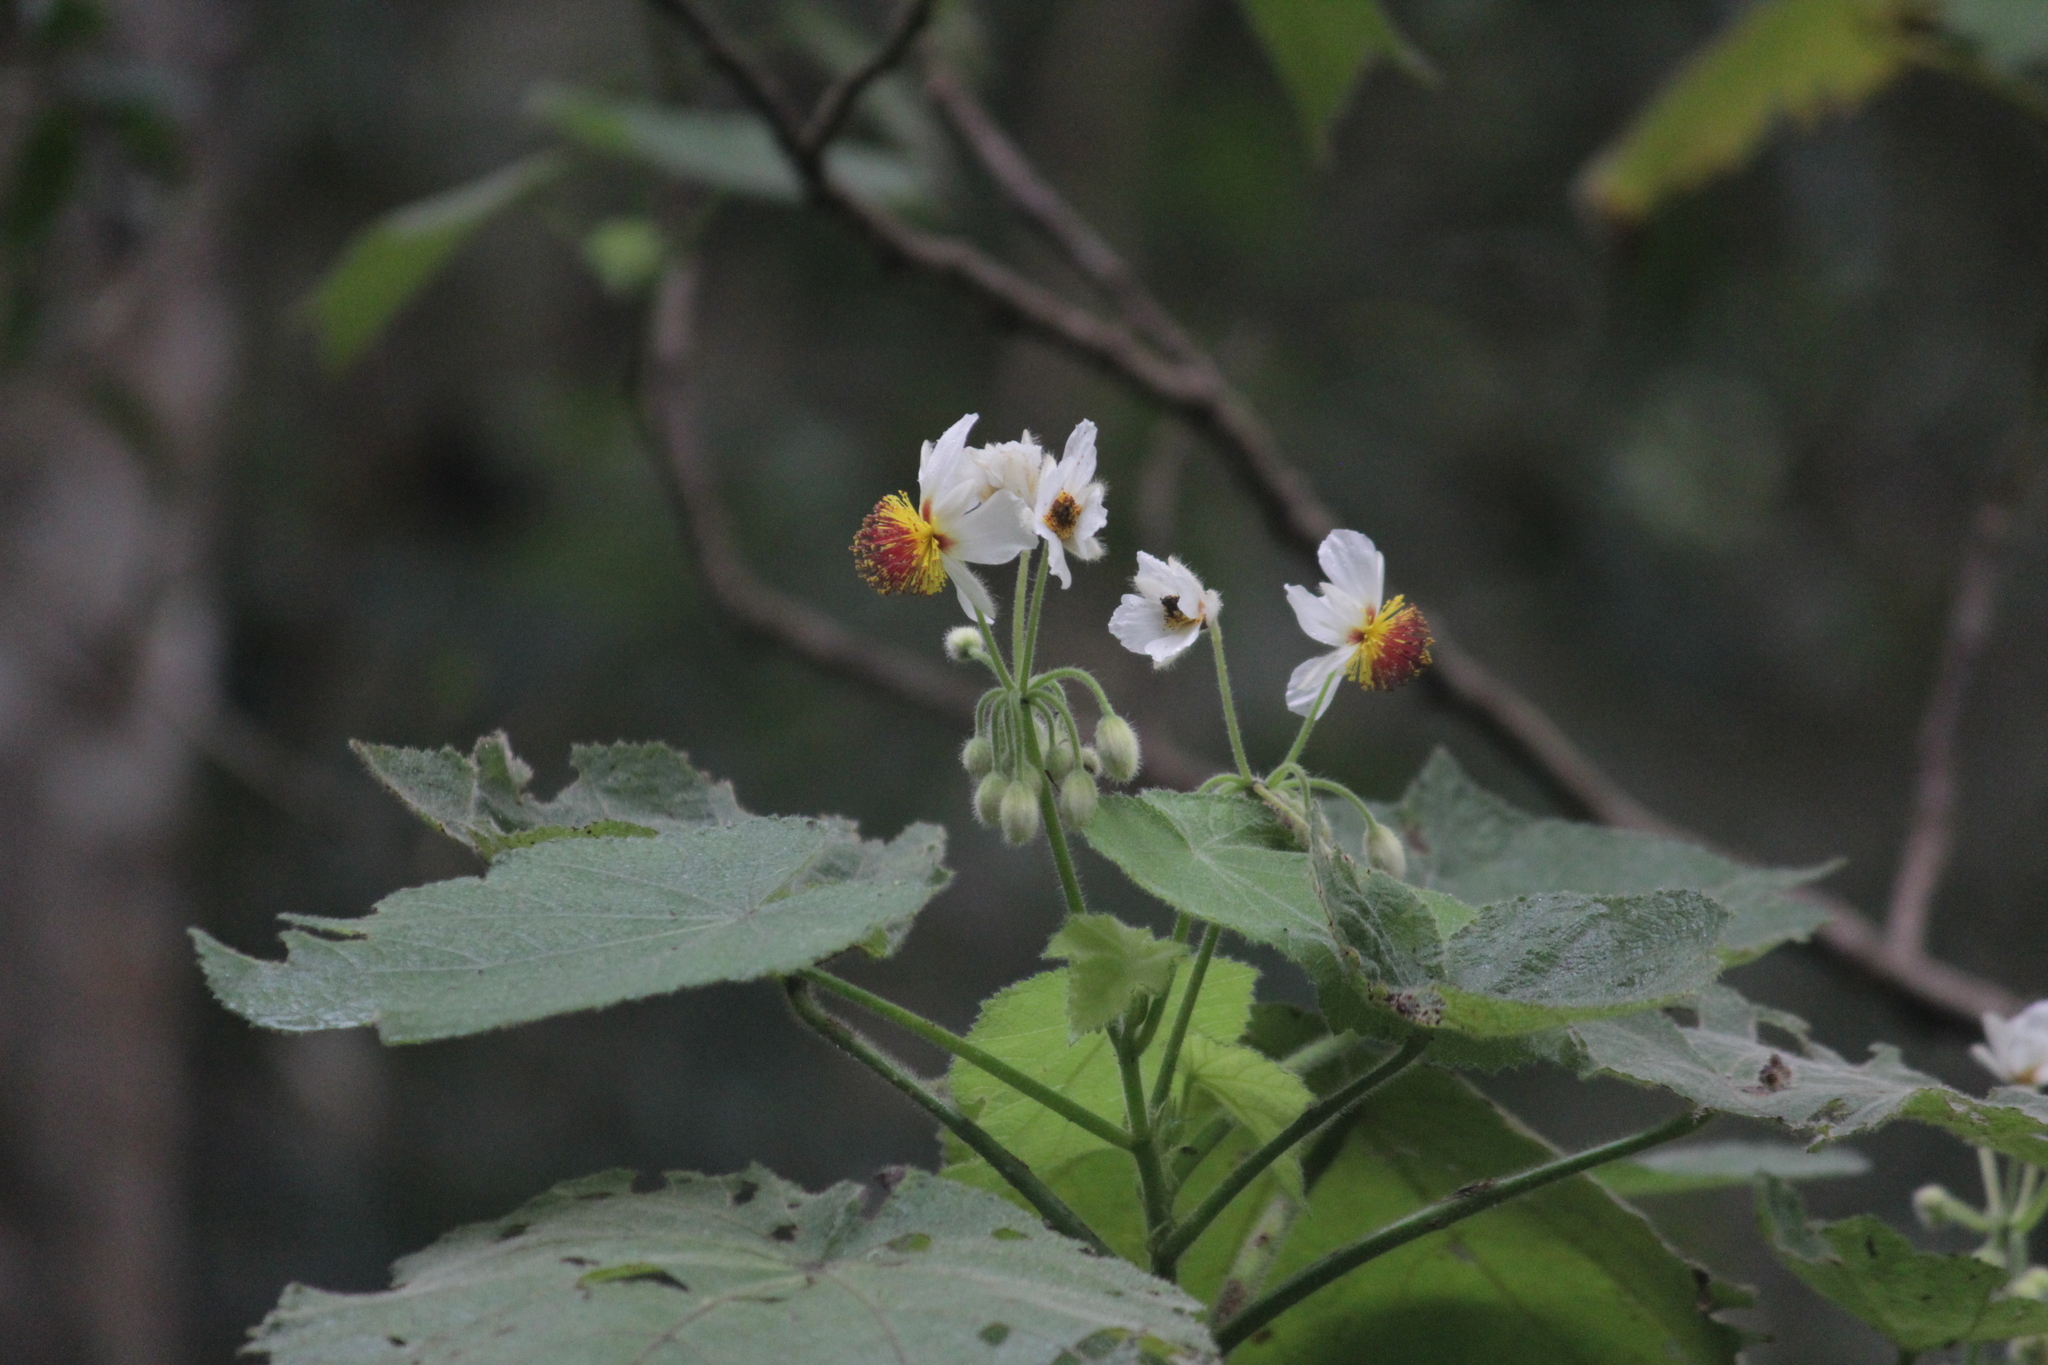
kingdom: Plantae
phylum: Tracheophyta
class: Magnoliopsida
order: Malvales
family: Malvaceae
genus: Sparrmannia
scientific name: Sparrmannia africana
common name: African-hemp
